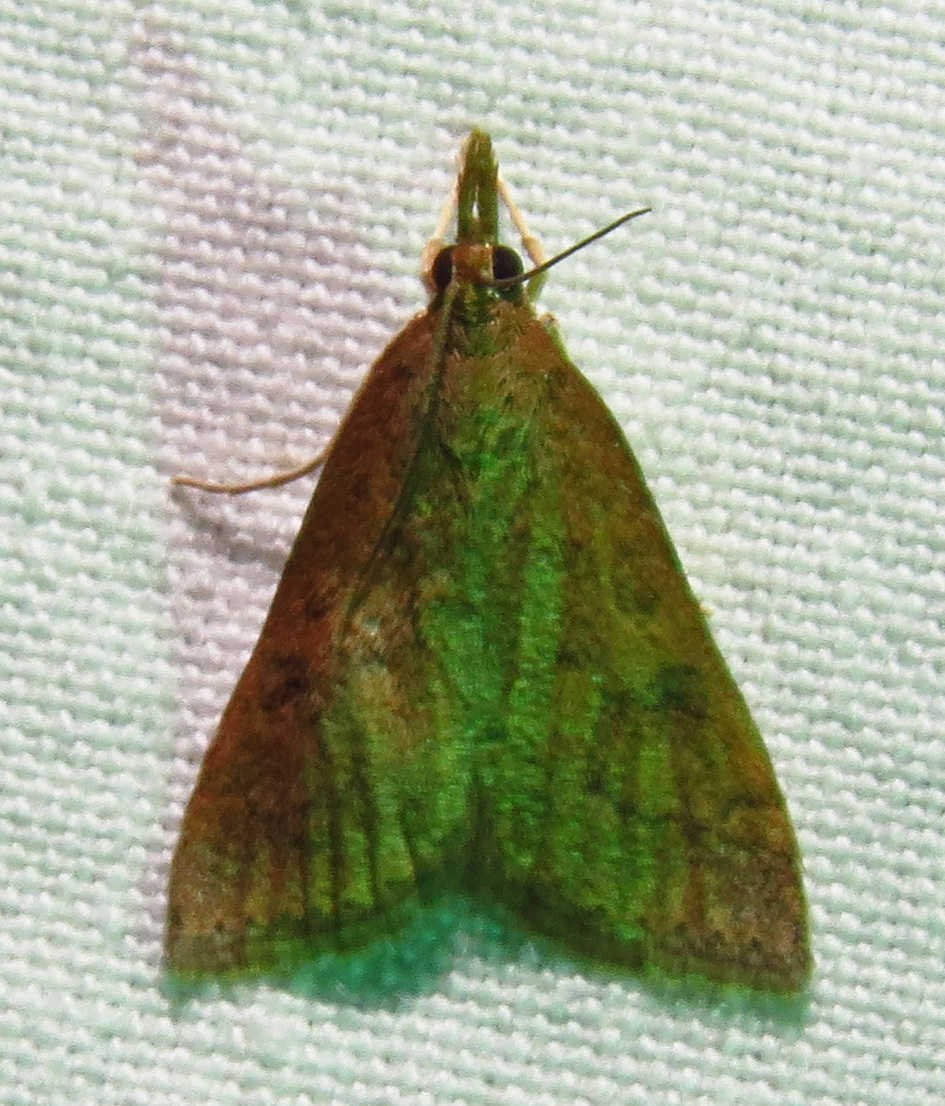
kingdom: Animalia
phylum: Arthropoda
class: Insecta
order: Lepidoptera
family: Crambidae
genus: Udea
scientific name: Udea rubigalis
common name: Celery leaftier moth
